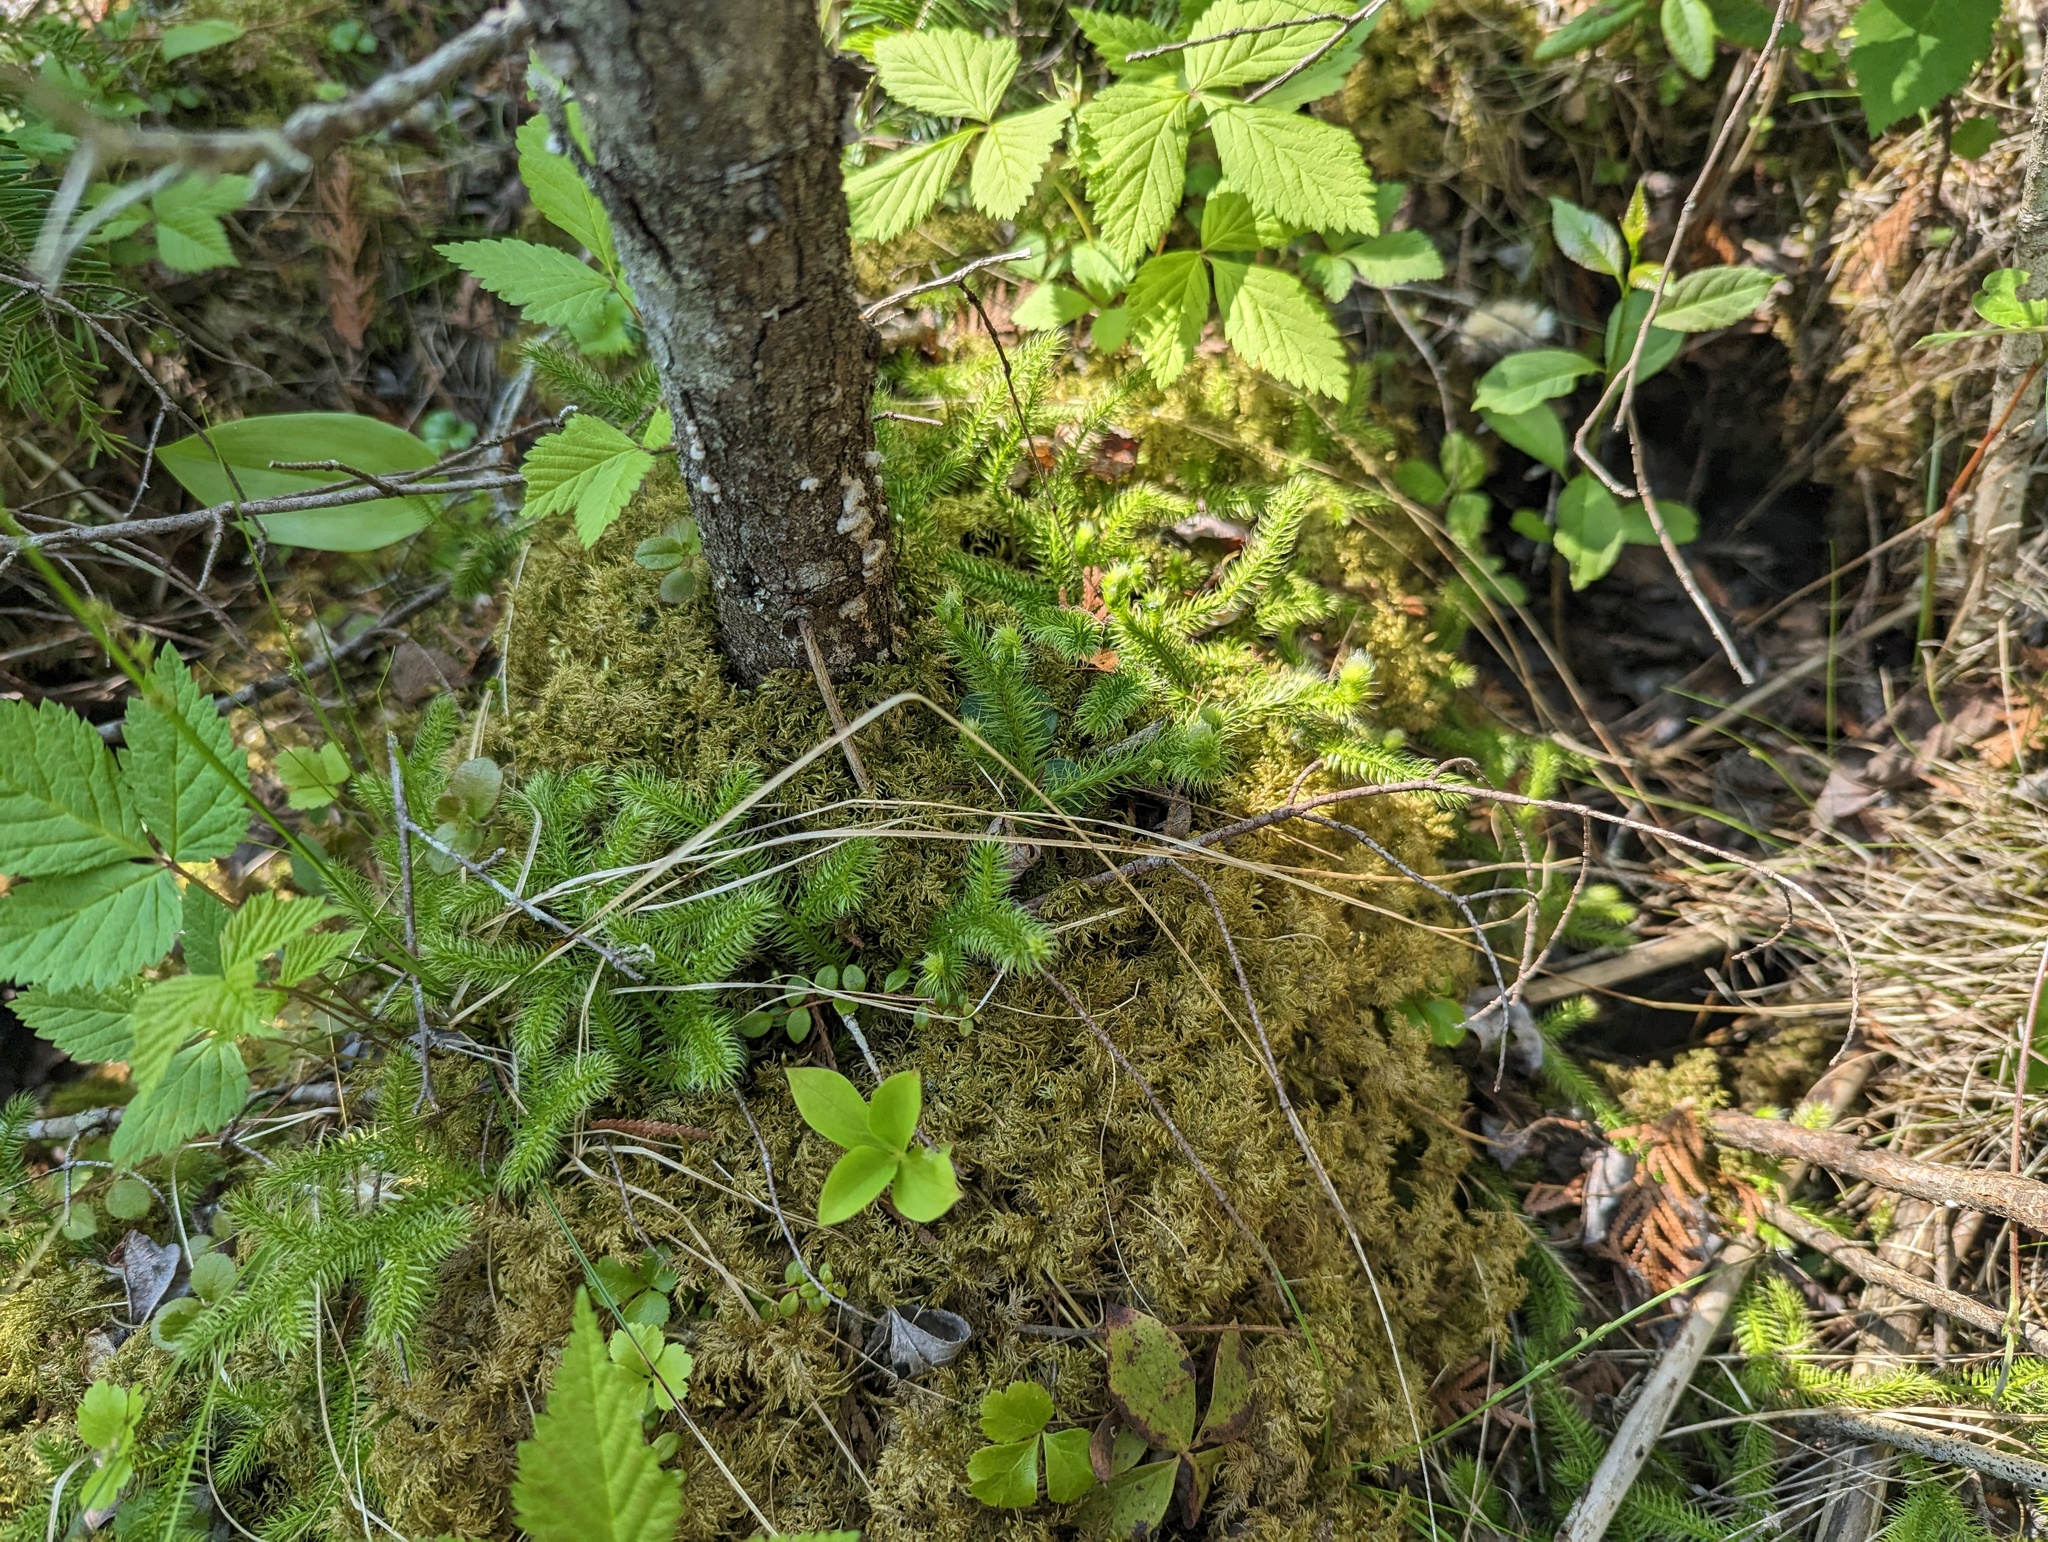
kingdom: Plantae
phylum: Tracheophyta
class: Lycopodiopsida
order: Lycopodiales
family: Lycopodiaceae
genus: Lycopodium
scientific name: Lycopodium clavatum
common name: Stag's-horn clubmoss
